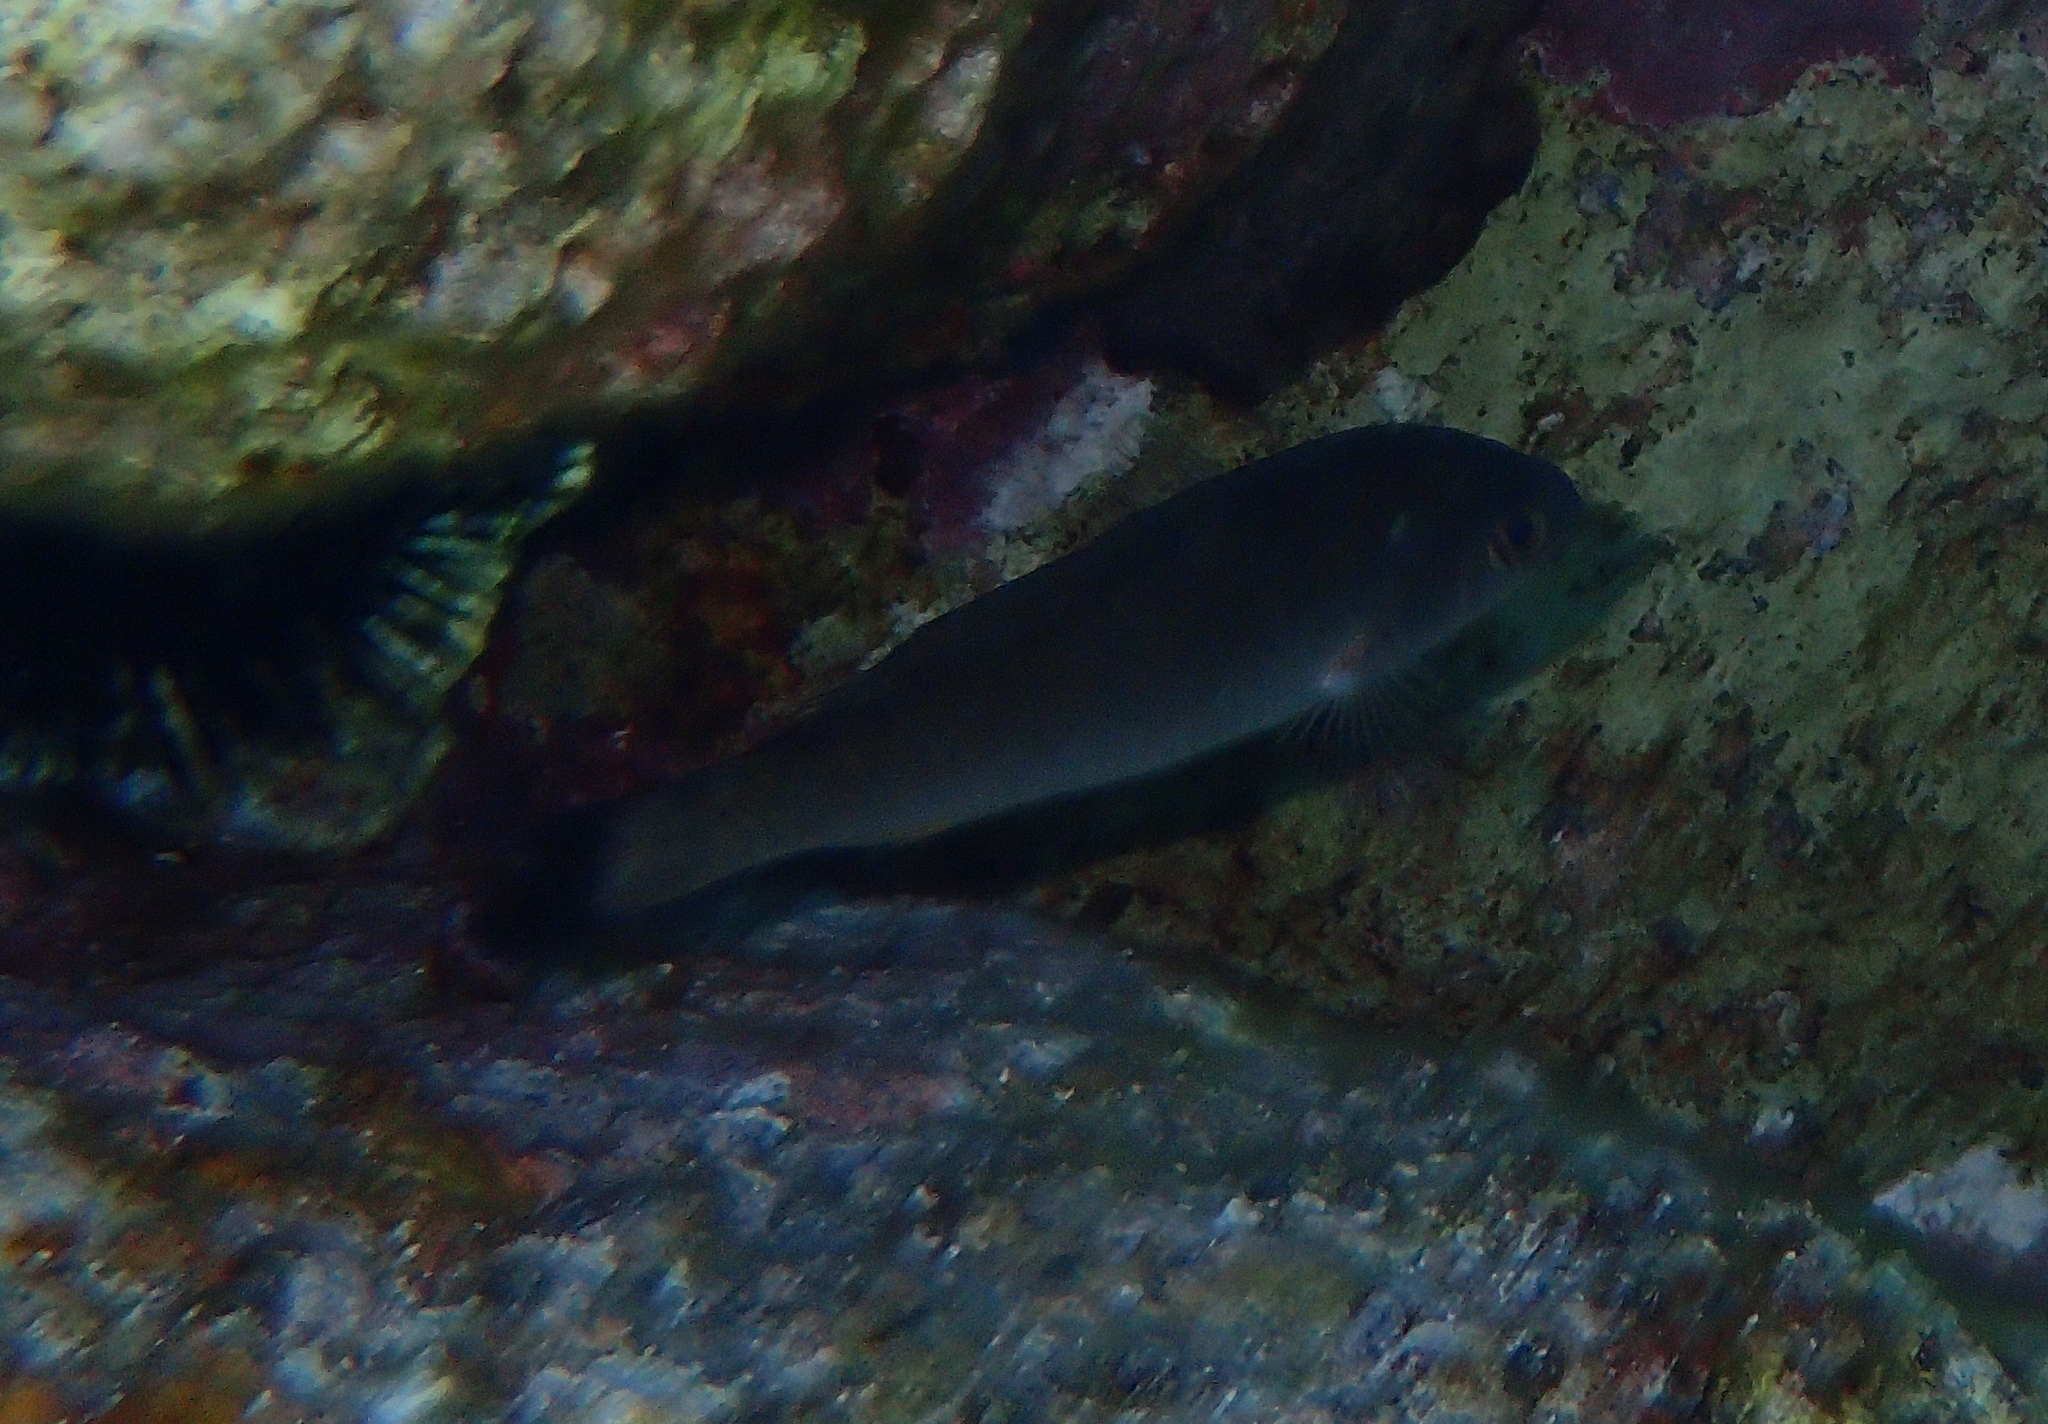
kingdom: Animalia
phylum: Chordata
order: Perciformes
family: Labridae
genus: Centrolabrus
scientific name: Centrolabrus melanocercus
